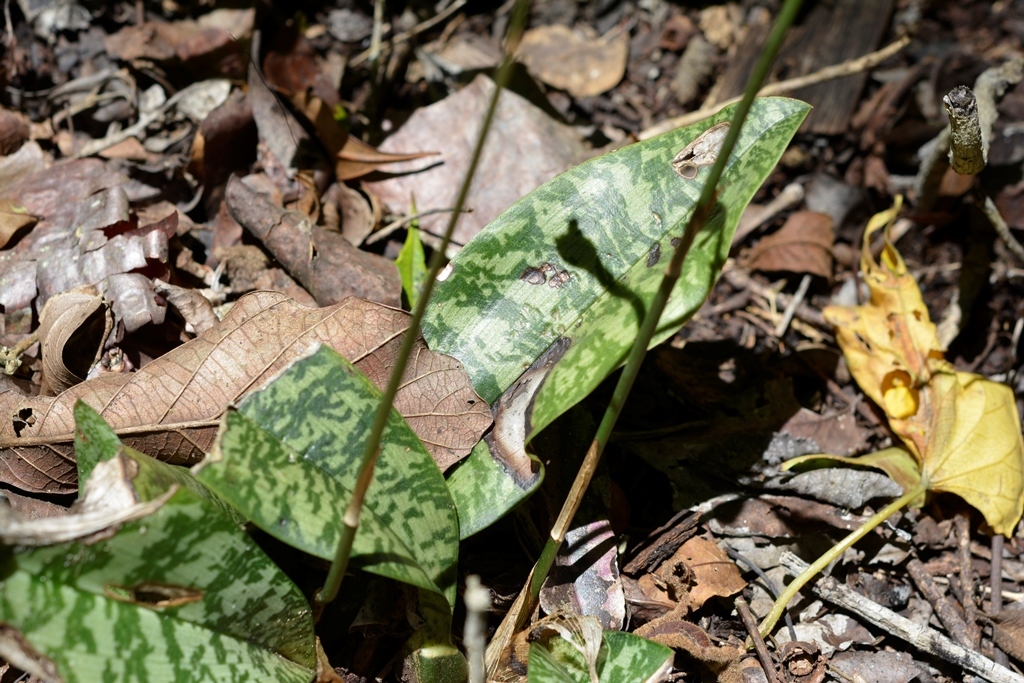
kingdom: Plantae
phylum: Tracheophyta
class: Liliopsida
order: Asparagales
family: Orchidaceae
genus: Eulophia
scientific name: Eulophia maculata
